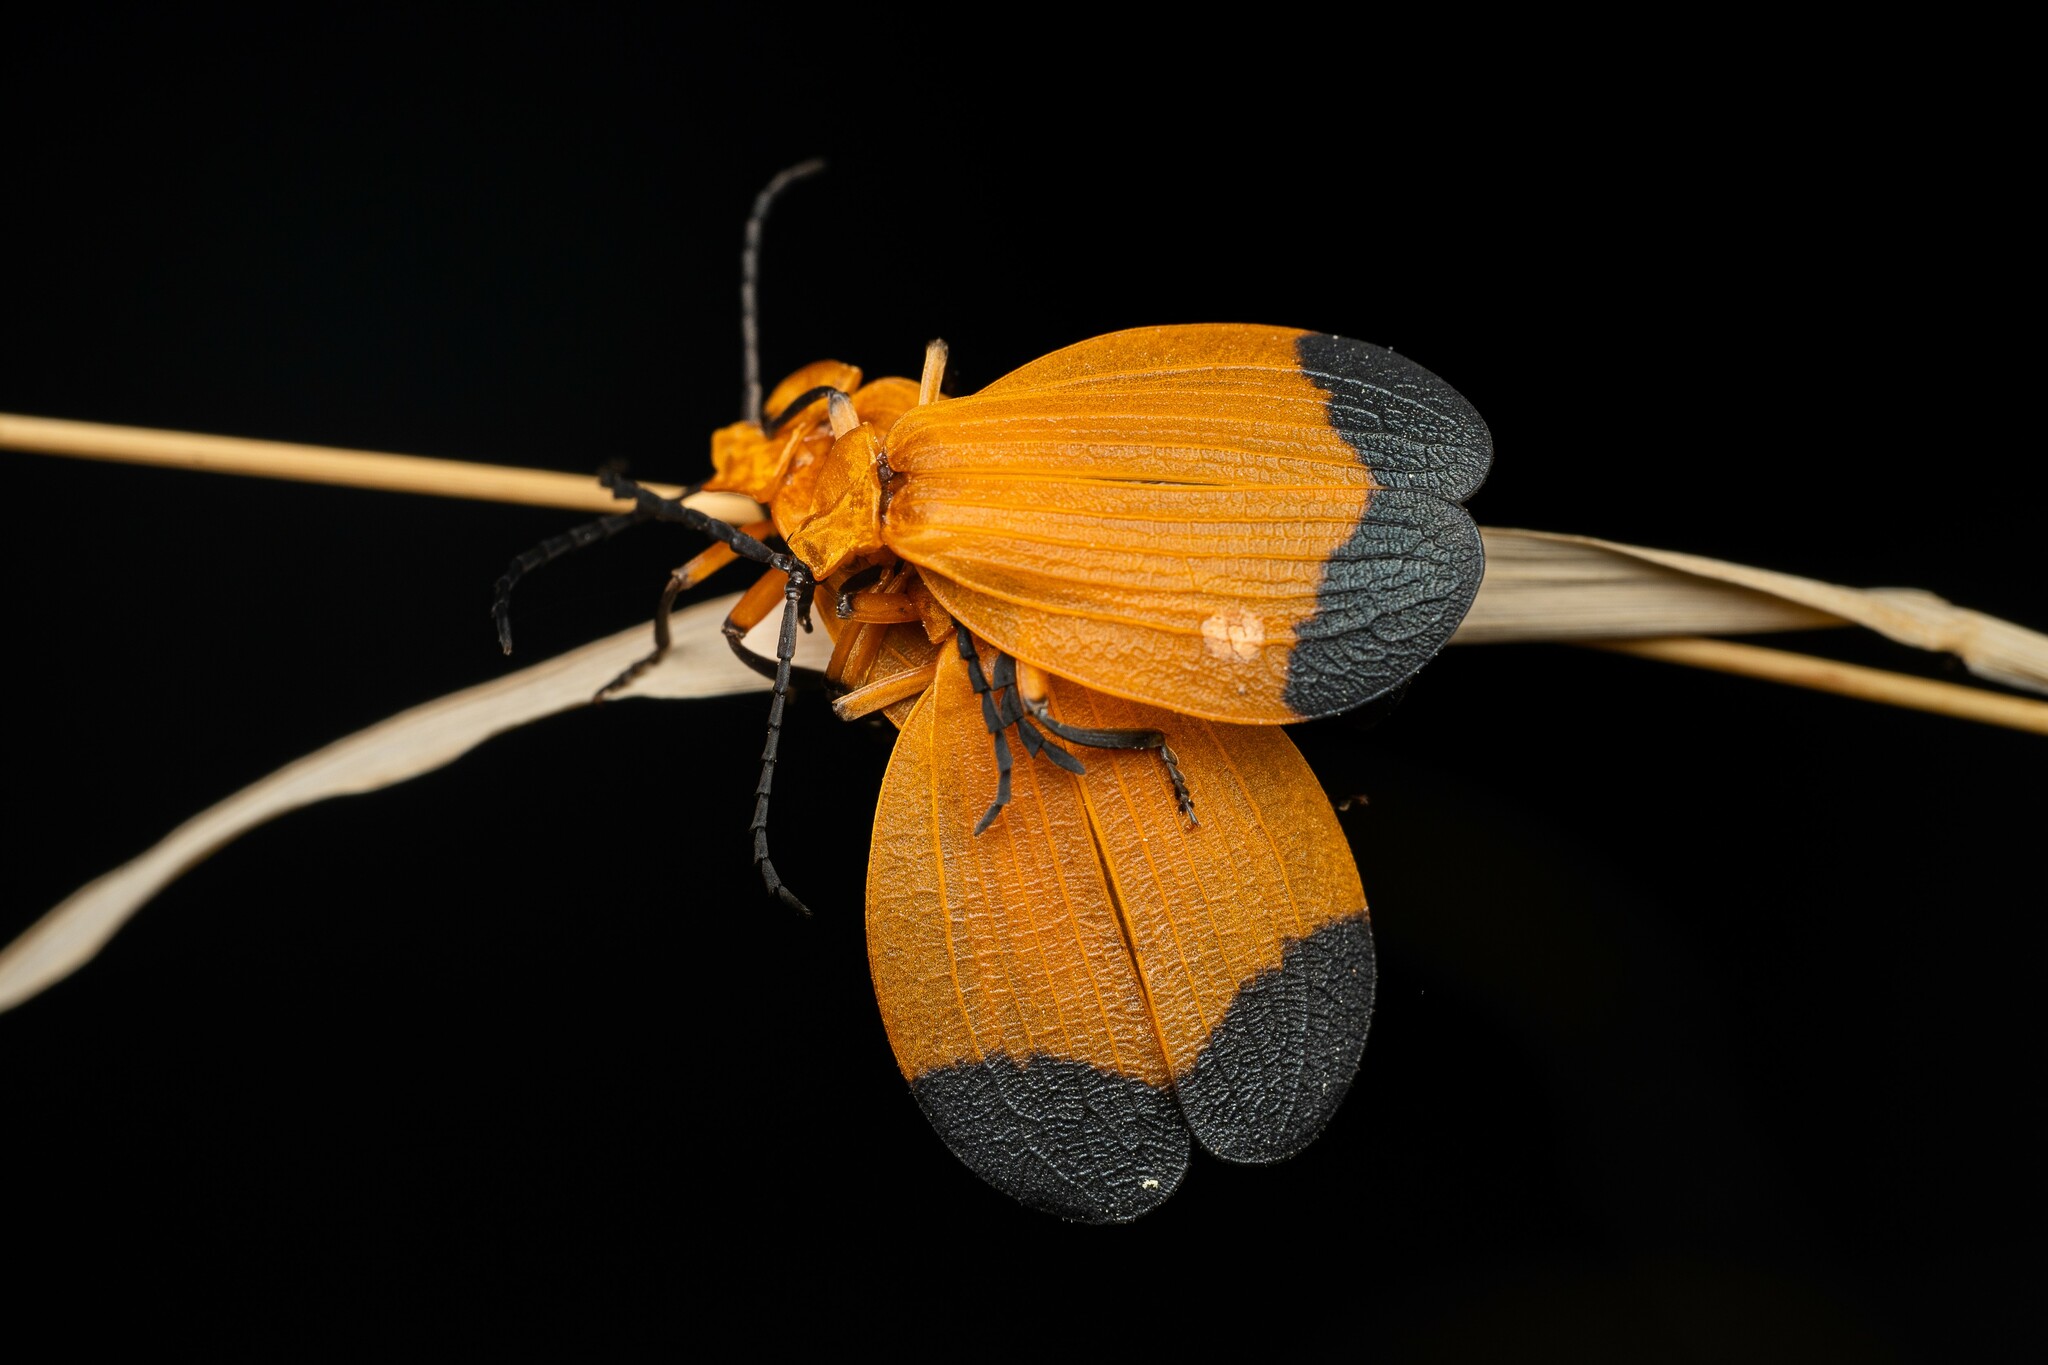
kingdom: Animalia
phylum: Arthropoda
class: Insecta
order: Coleoptera
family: Lycidae
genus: Lycus
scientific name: Lycus arizonensis
